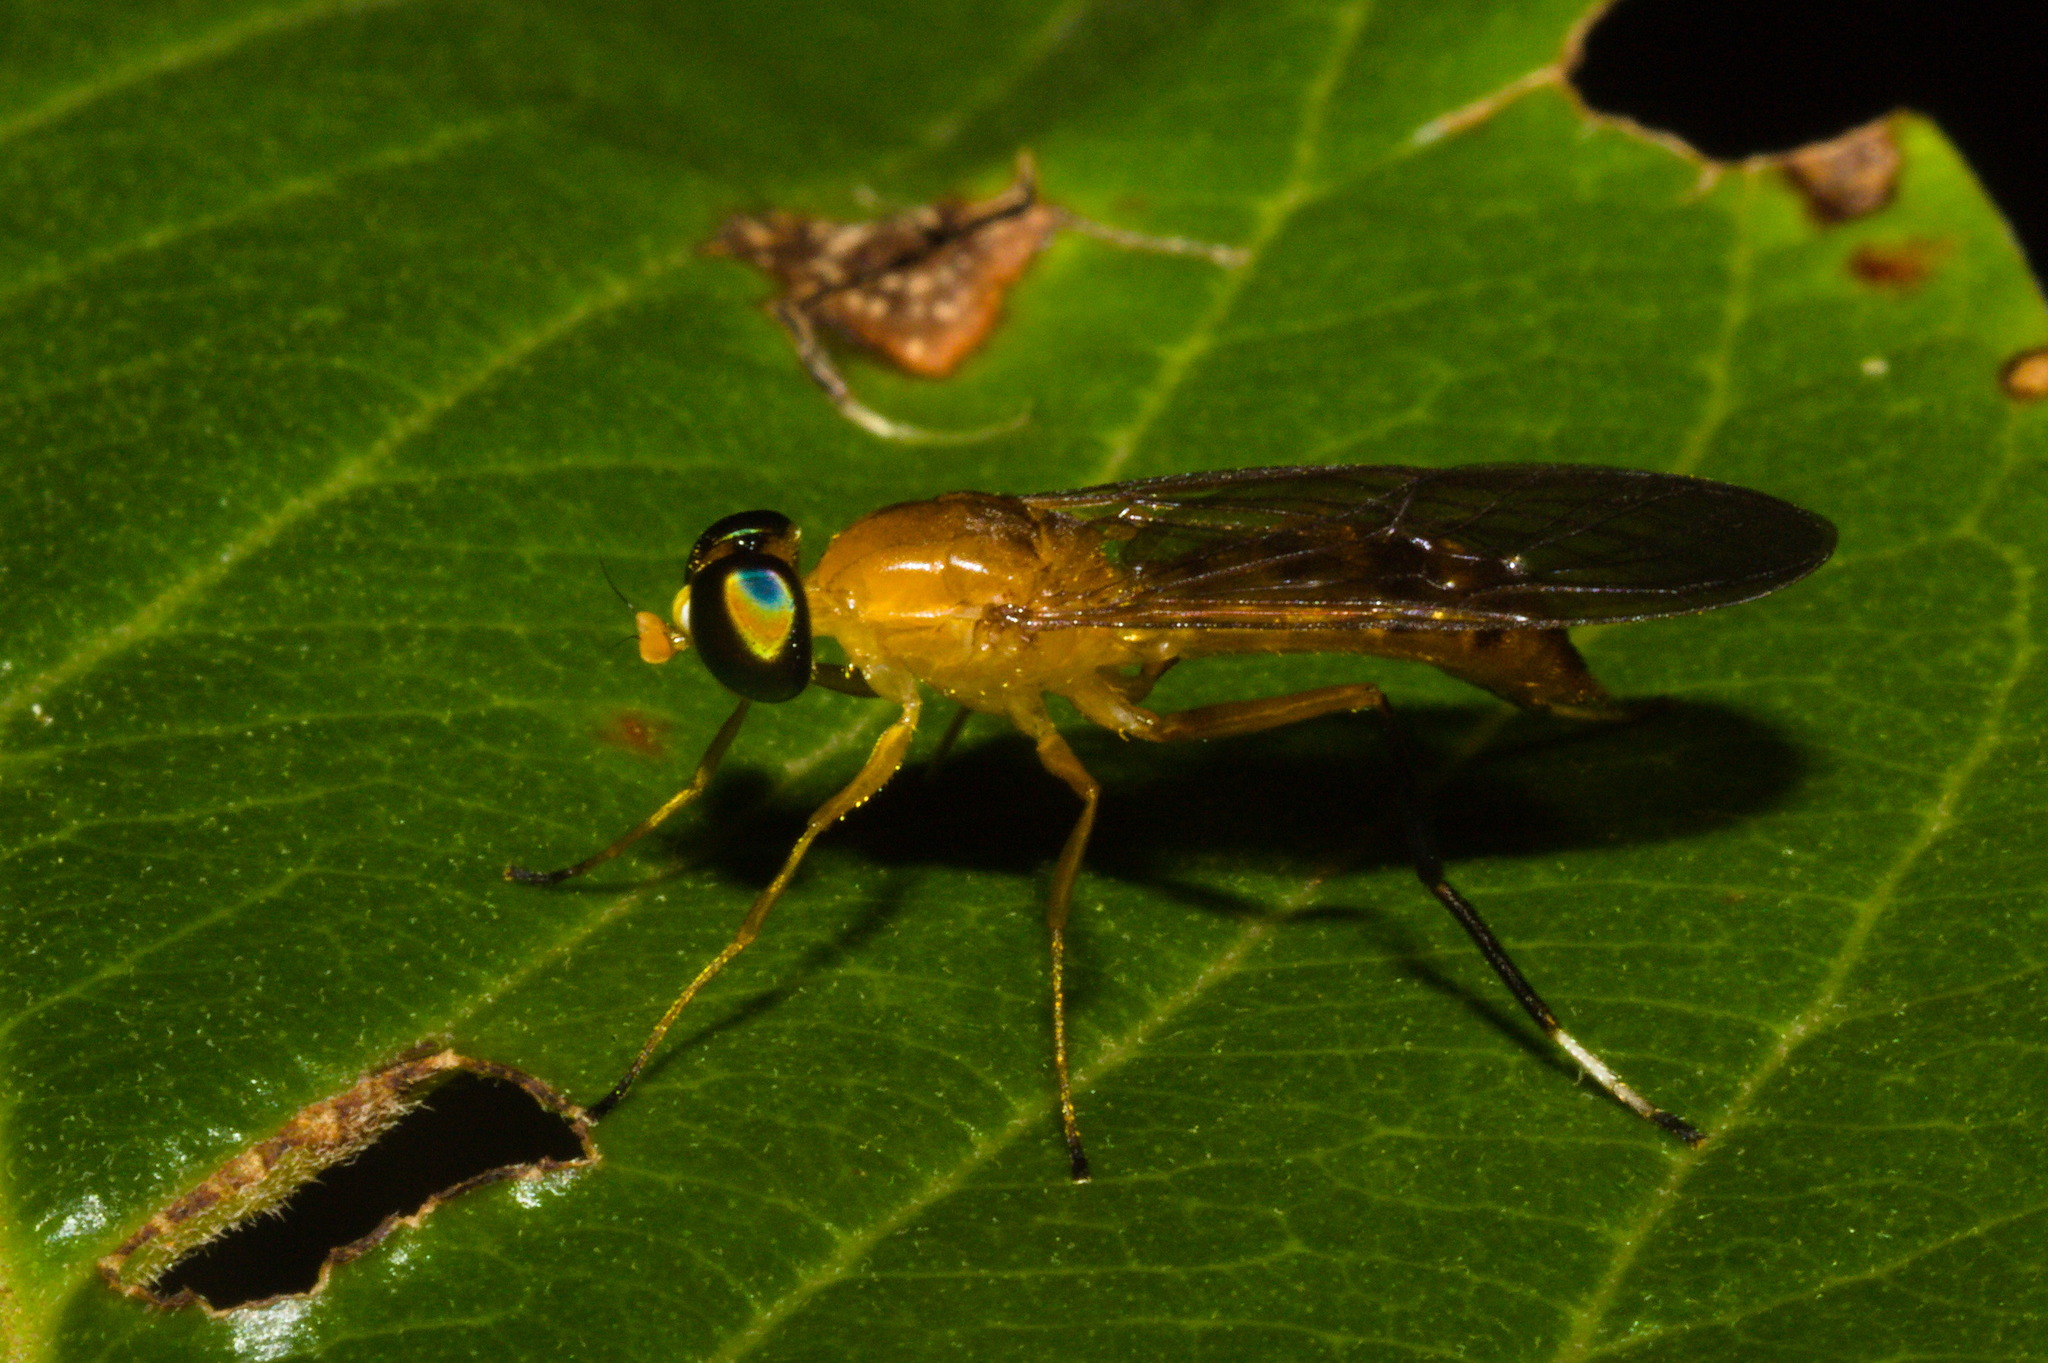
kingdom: Animalia
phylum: Arthropoda
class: Insecta
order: Diptera
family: Stratiomyidae
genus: Ptecticus
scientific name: Ptecticus testaceus
